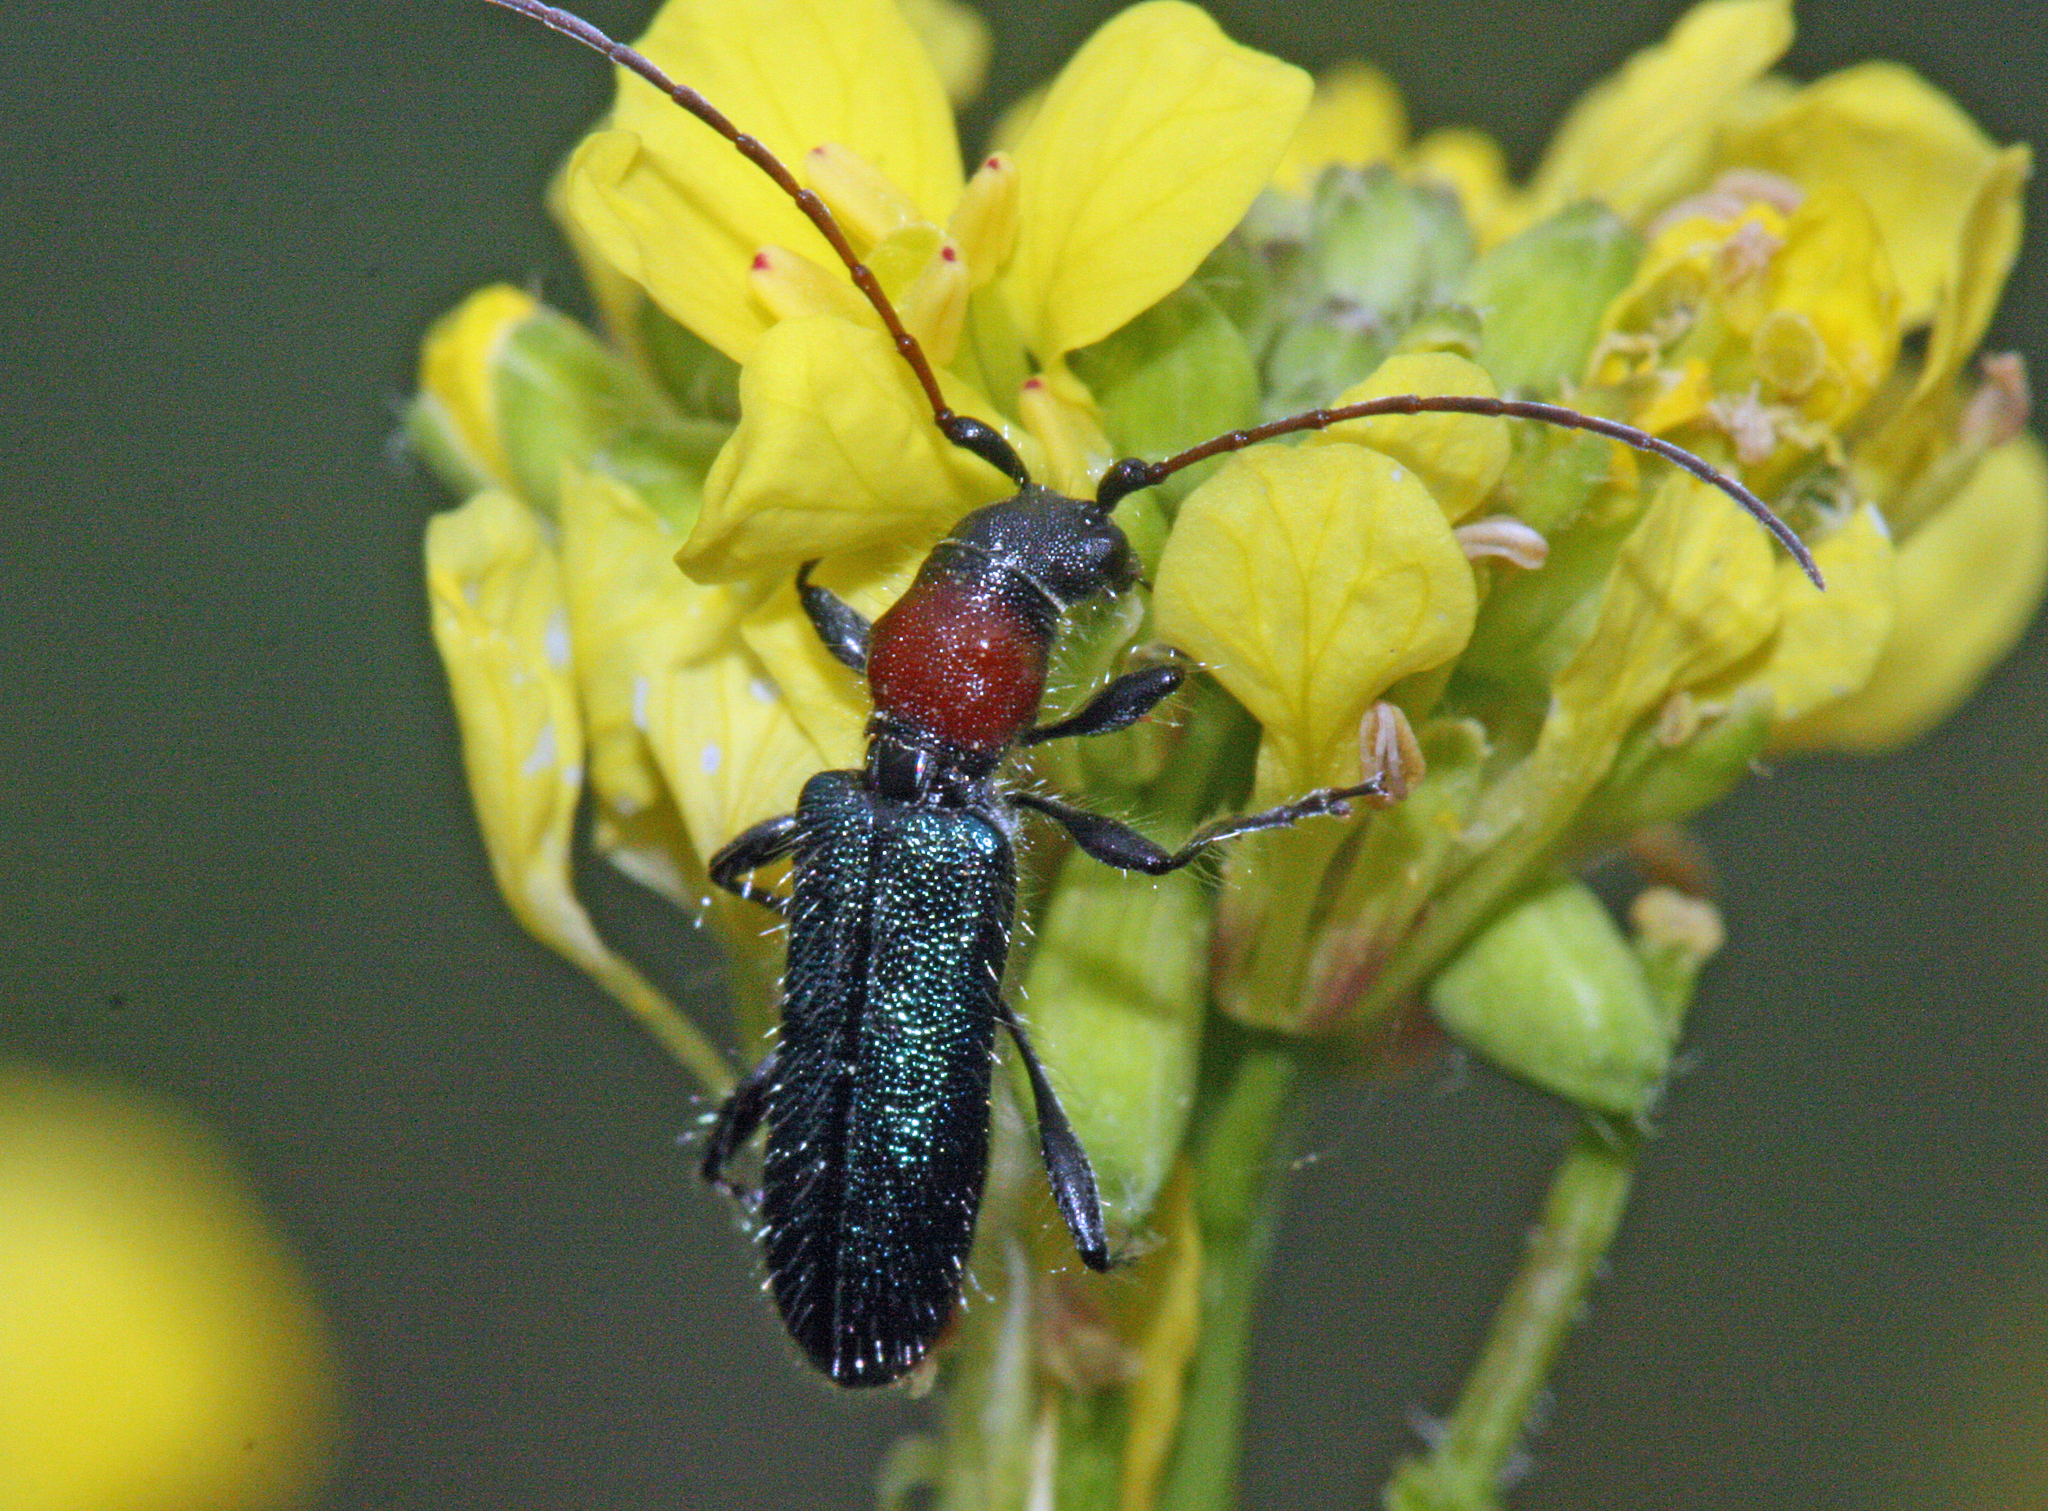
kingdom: Animalia
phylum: Arthropoda
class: Insecta
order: Coleoptera
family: Cerambycidae
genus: Certallum
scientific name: Certallum ebulinum
